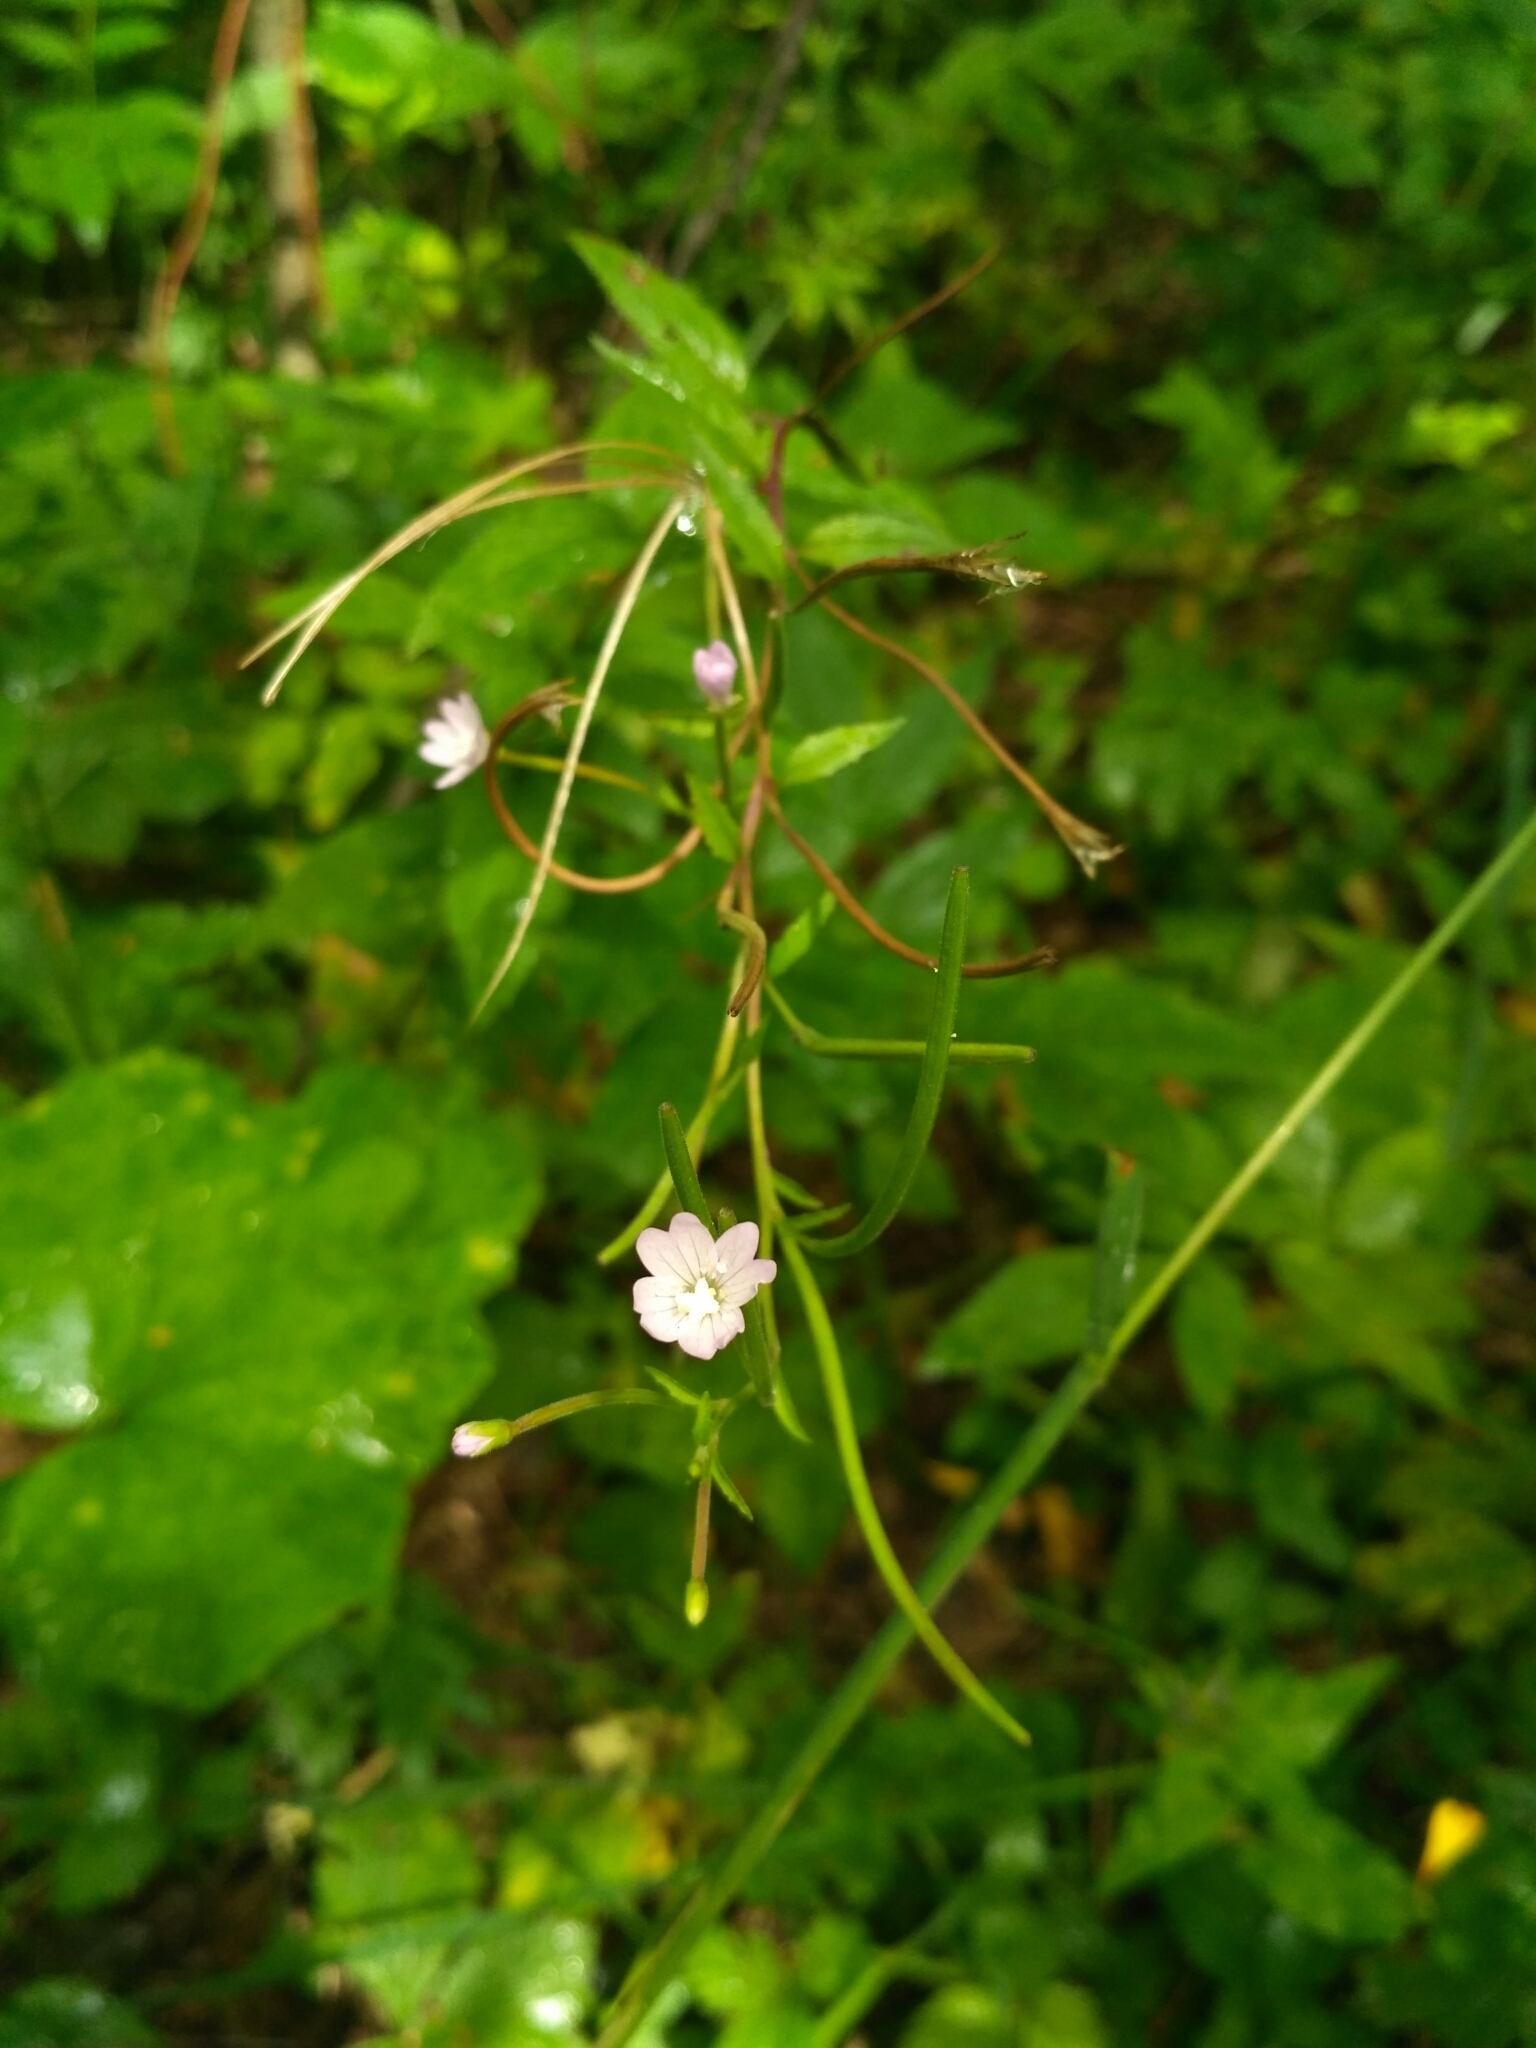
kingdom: Plantae
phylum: Tracheophyta
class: Magnoliopsida
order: Myrtales
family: Onagraceae
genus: Epilobium
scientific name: Epilobium montanum
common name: Broad-leaved willowherb
